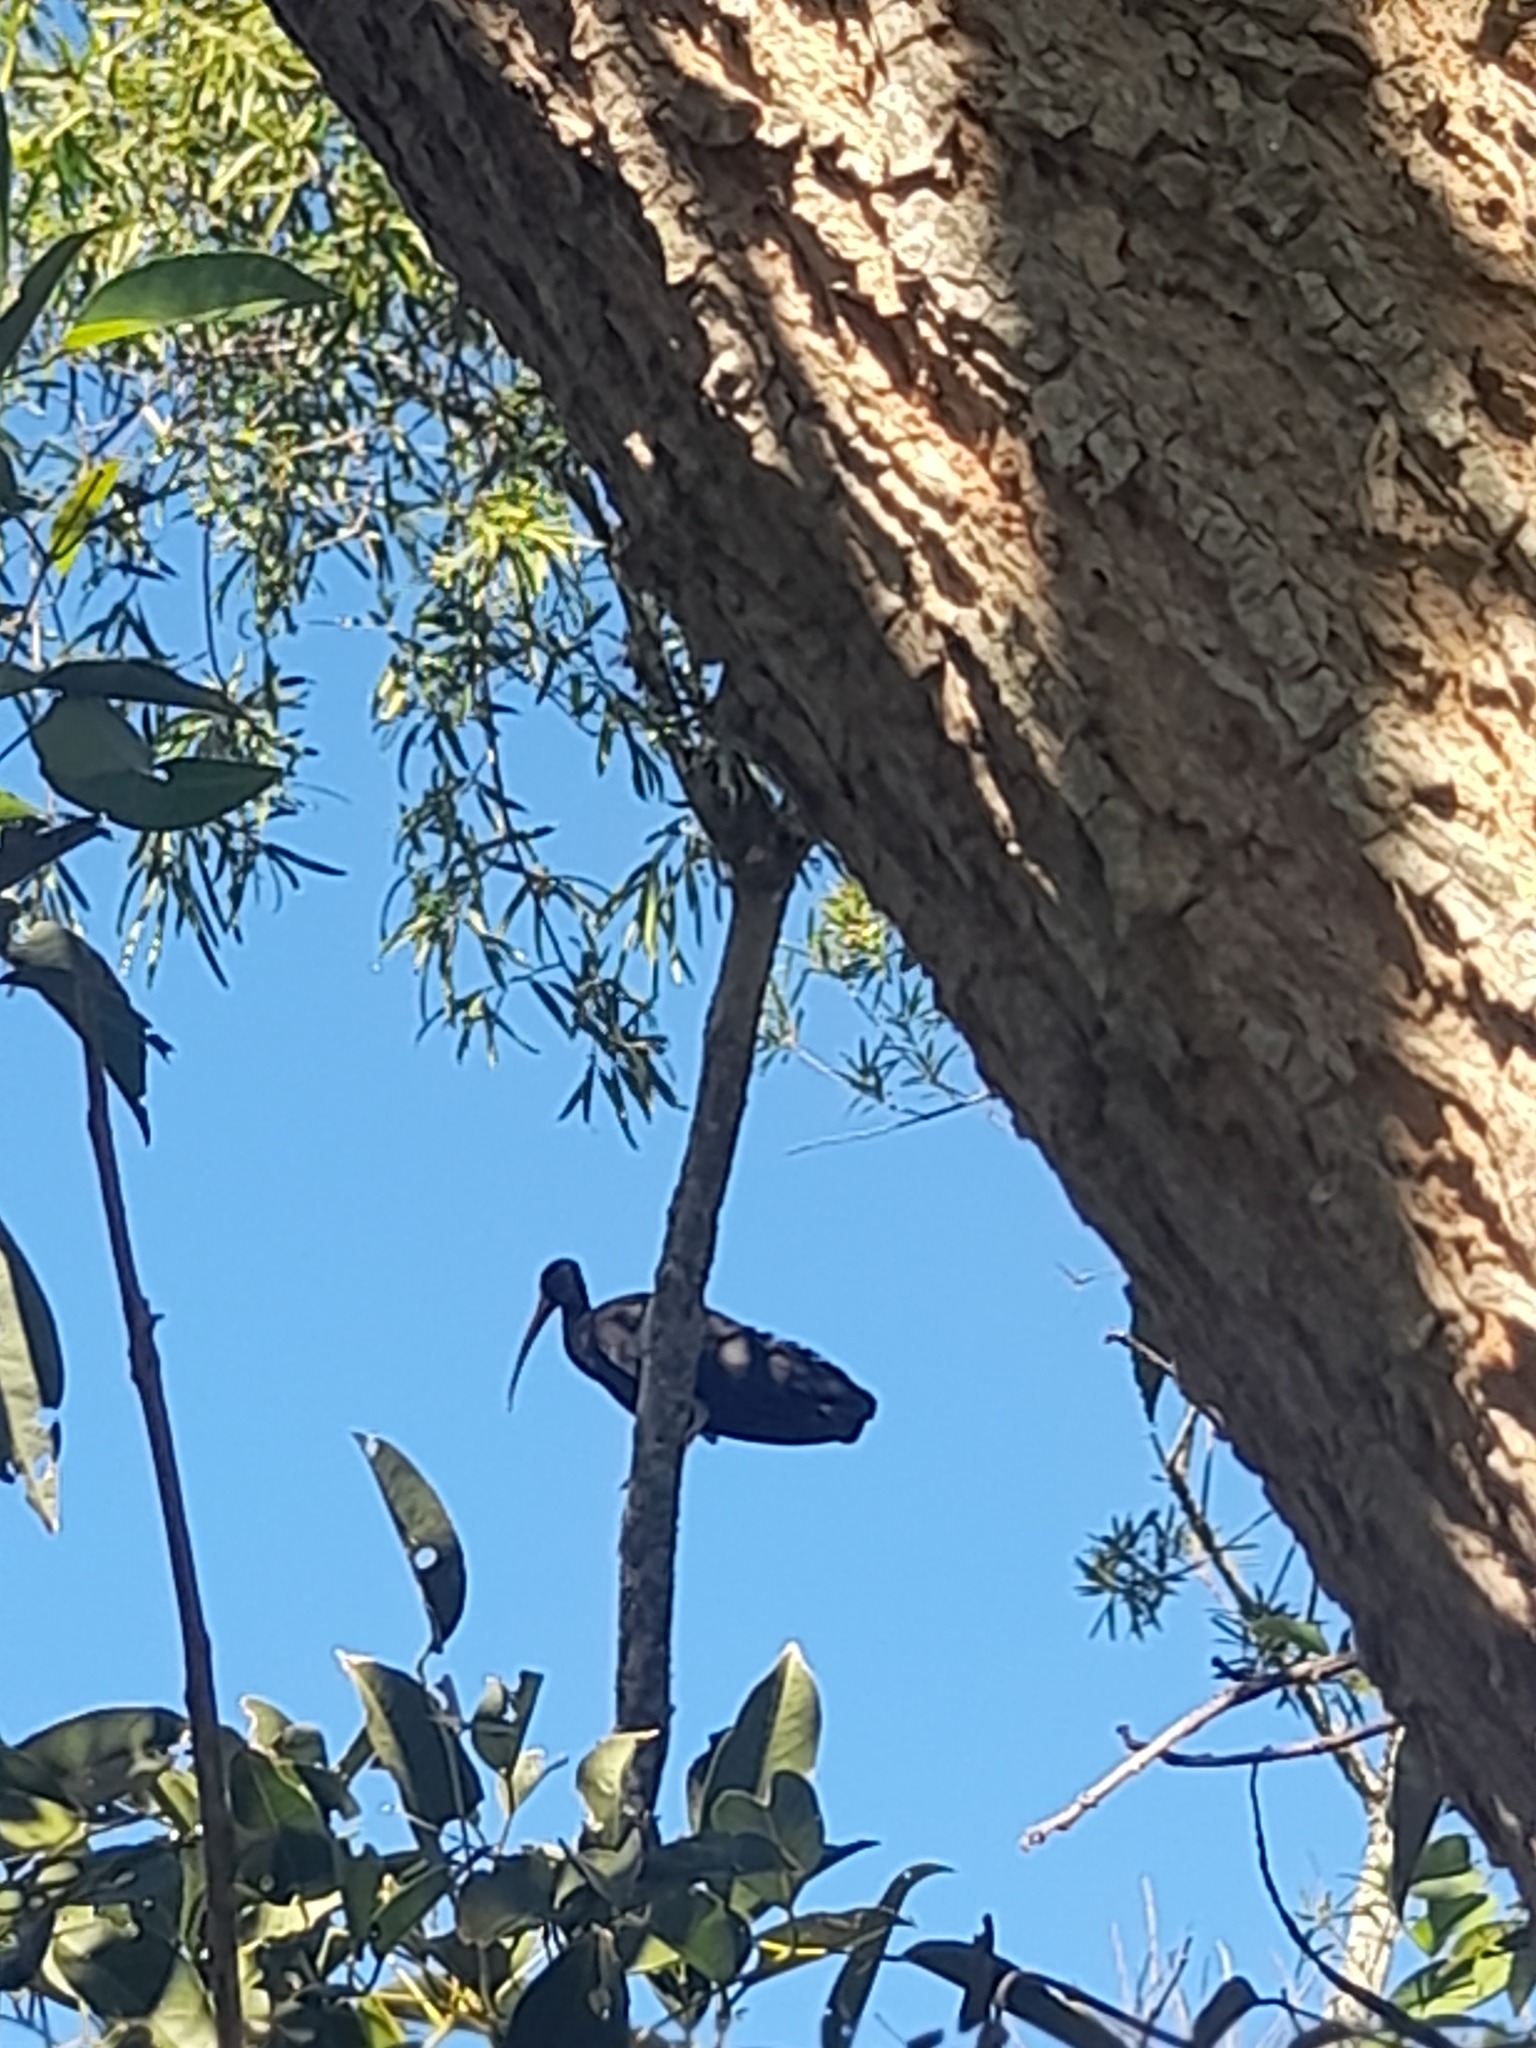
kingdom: Animalia
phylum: Chordata
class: Aves
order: Pelecaniformes
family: Threskiornithidae
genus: Phimosus
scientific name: Phimosus infuscatus
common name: Bare-faced ibis
